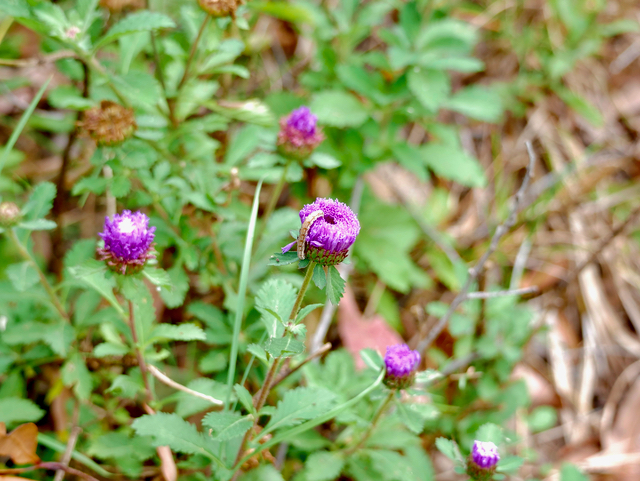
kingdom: Plantae
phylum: Tracheophyta
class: Magnoliopsida
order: Asterales
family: Asteraceae
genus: Centratherum
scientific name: Centratherum punctatum
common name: Larkdaisy
